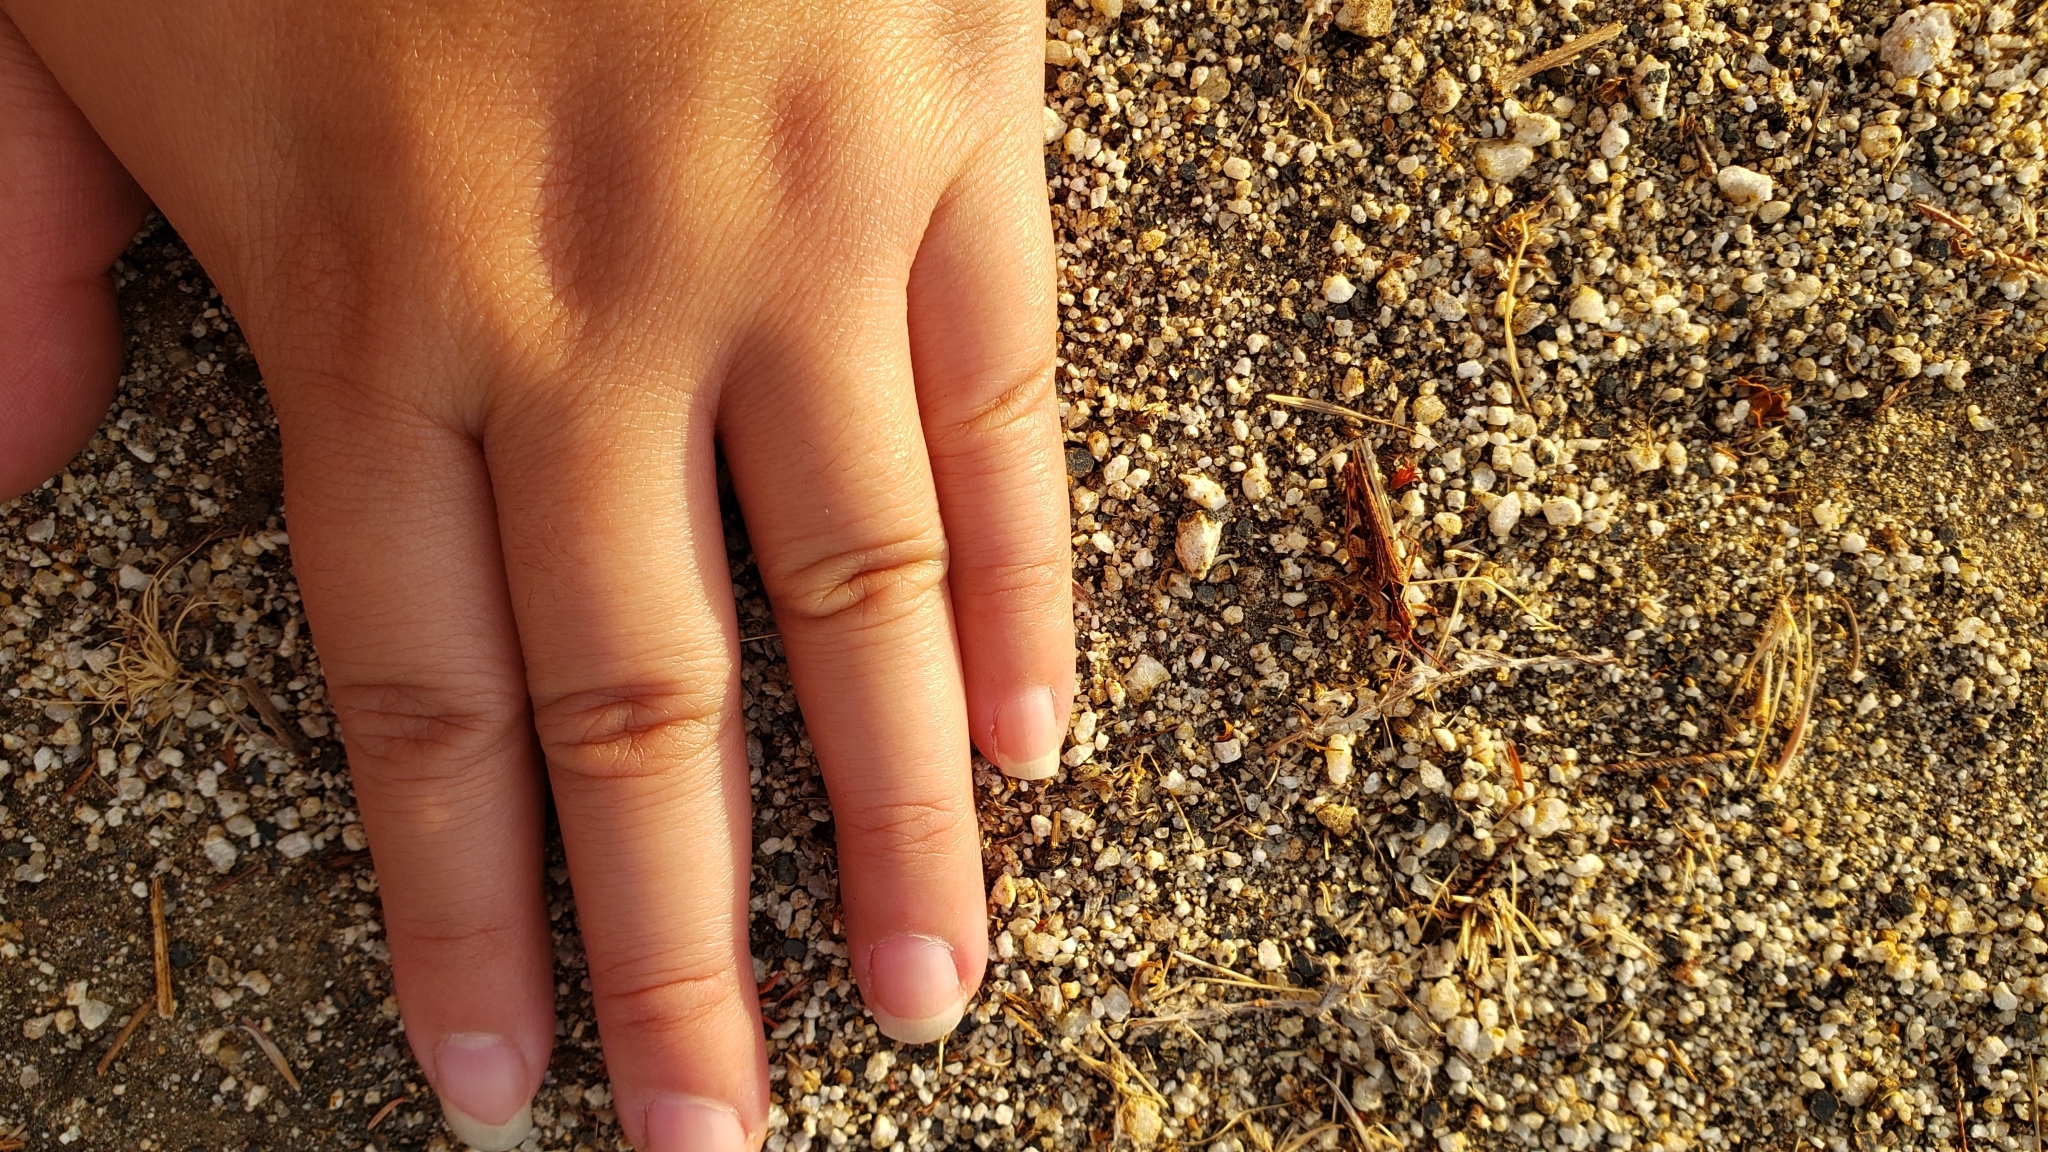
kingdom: Animalia
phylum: Arthropoda
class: Insecta
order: Orthoptera
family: Acrididae
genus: Psoloessa
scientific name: Psoloessa texana
